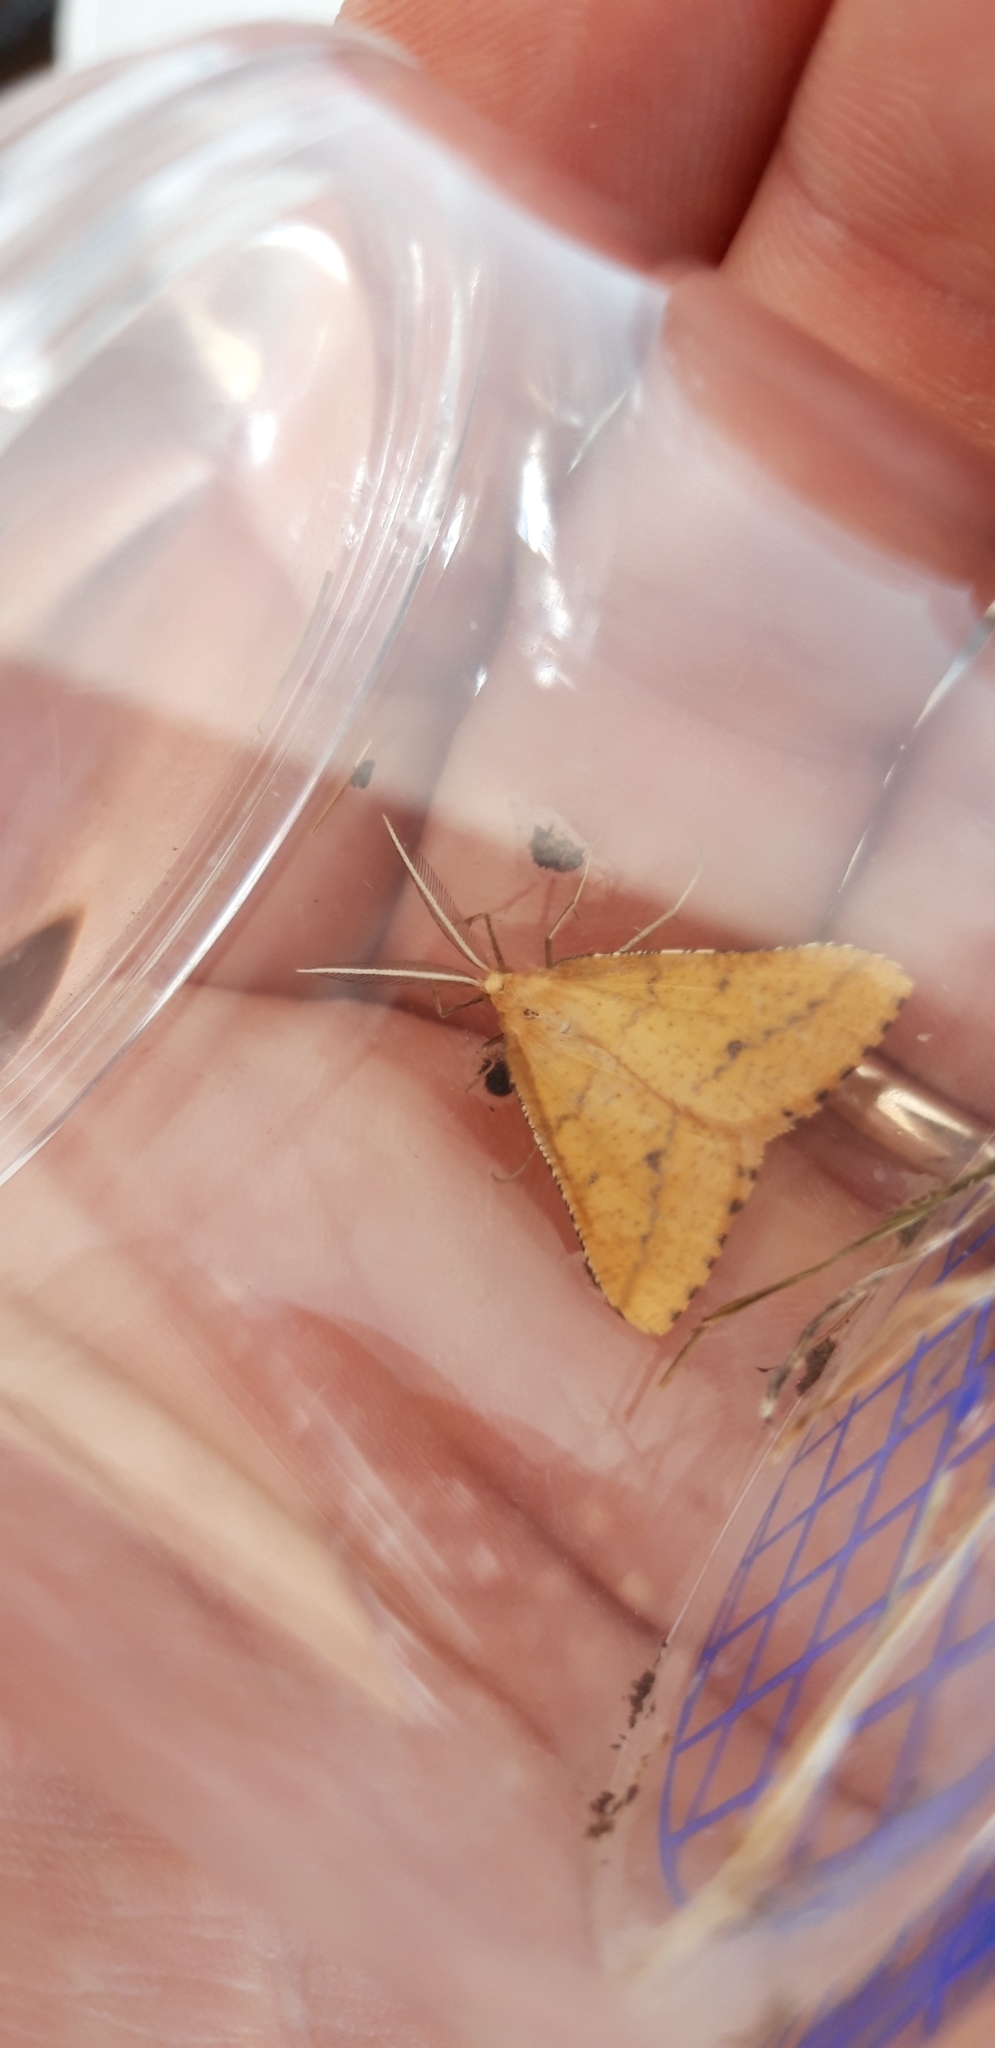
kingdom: Animalia
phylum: Arthropoda
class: Insecta
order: Lepidoptera
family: Geometridae
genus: Aspitates
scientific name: Aspitates ochrearia
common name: Yellow belle
